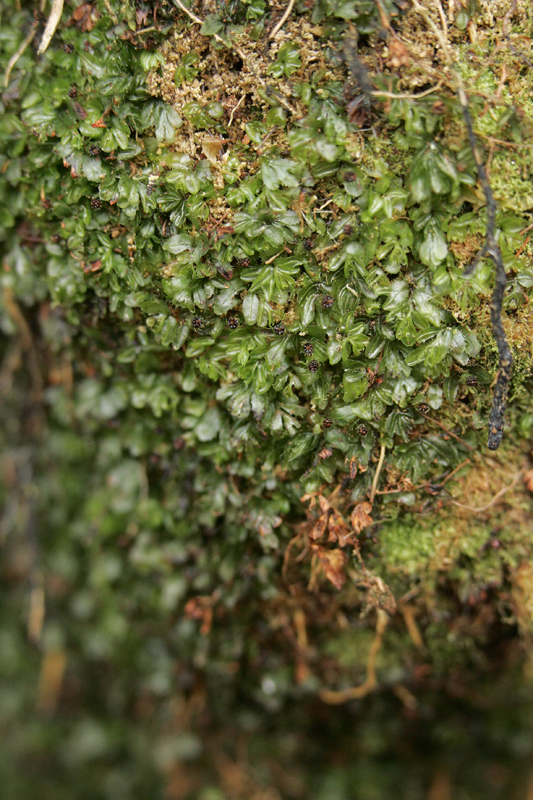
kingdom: Plantae
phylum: Tracheophyta
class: Polypodiopsida
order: Hymenophyllales
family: Hymenophyllaceae
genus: Hymenophyllum
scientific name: Hymenophyllum minimum
